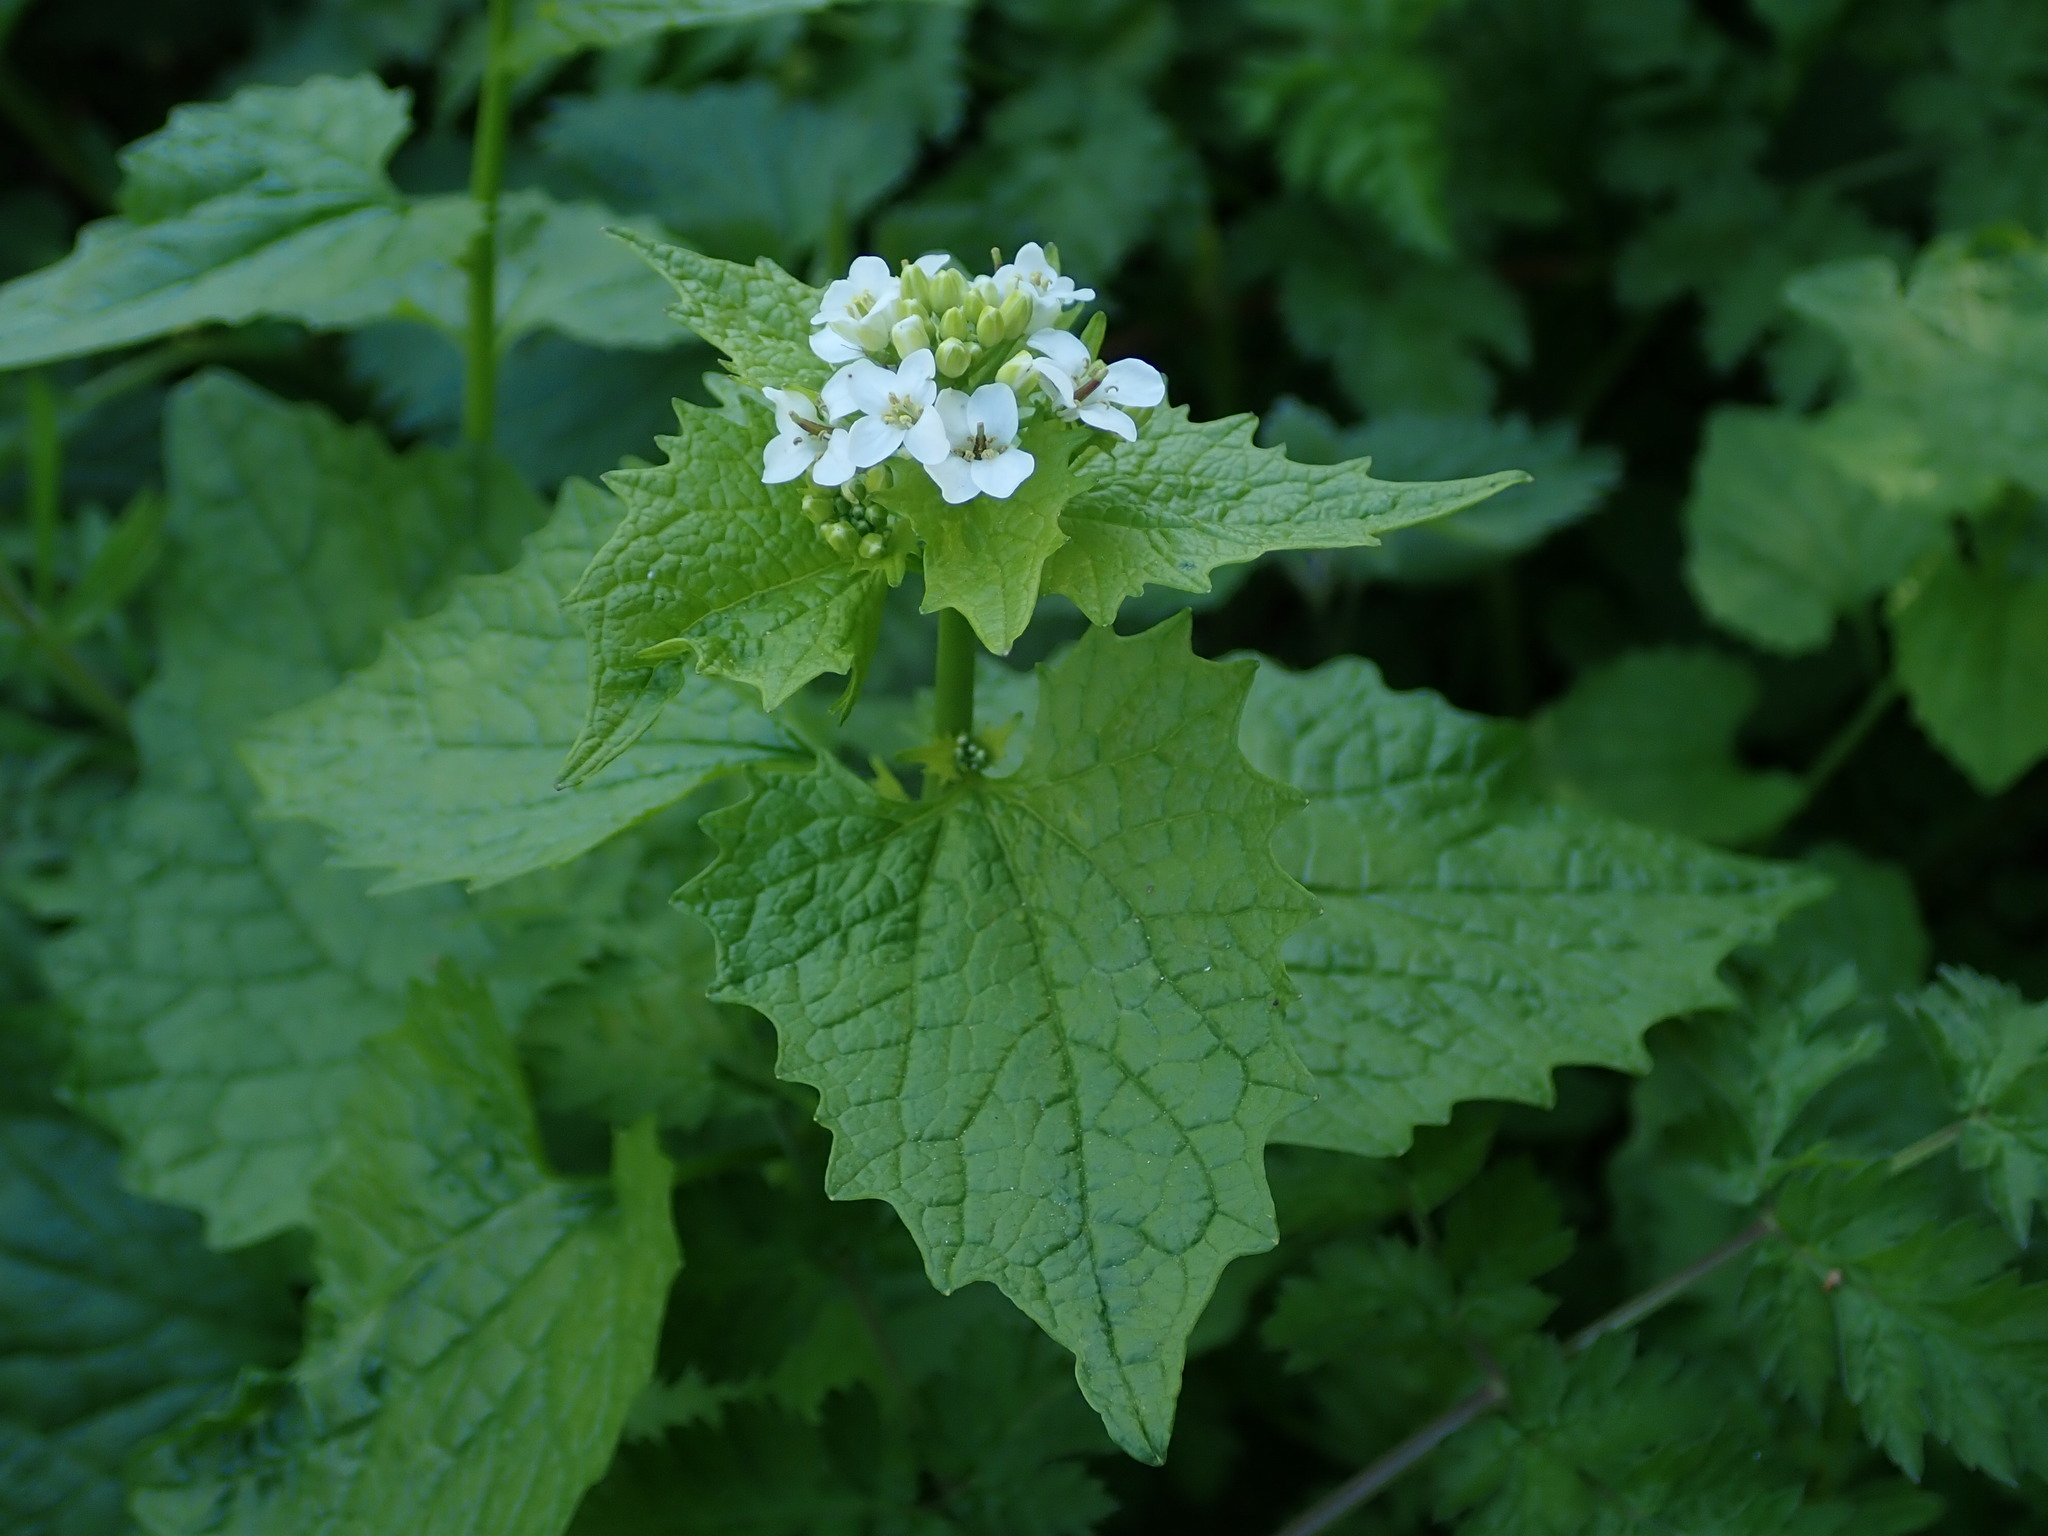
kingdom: Plantae
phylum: Tracheophyta
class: Magnoliopsida
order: Brassicales
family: Brassicaceae
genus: Alliaria
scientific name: Alliaria petiolata
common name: Garlic mustard
